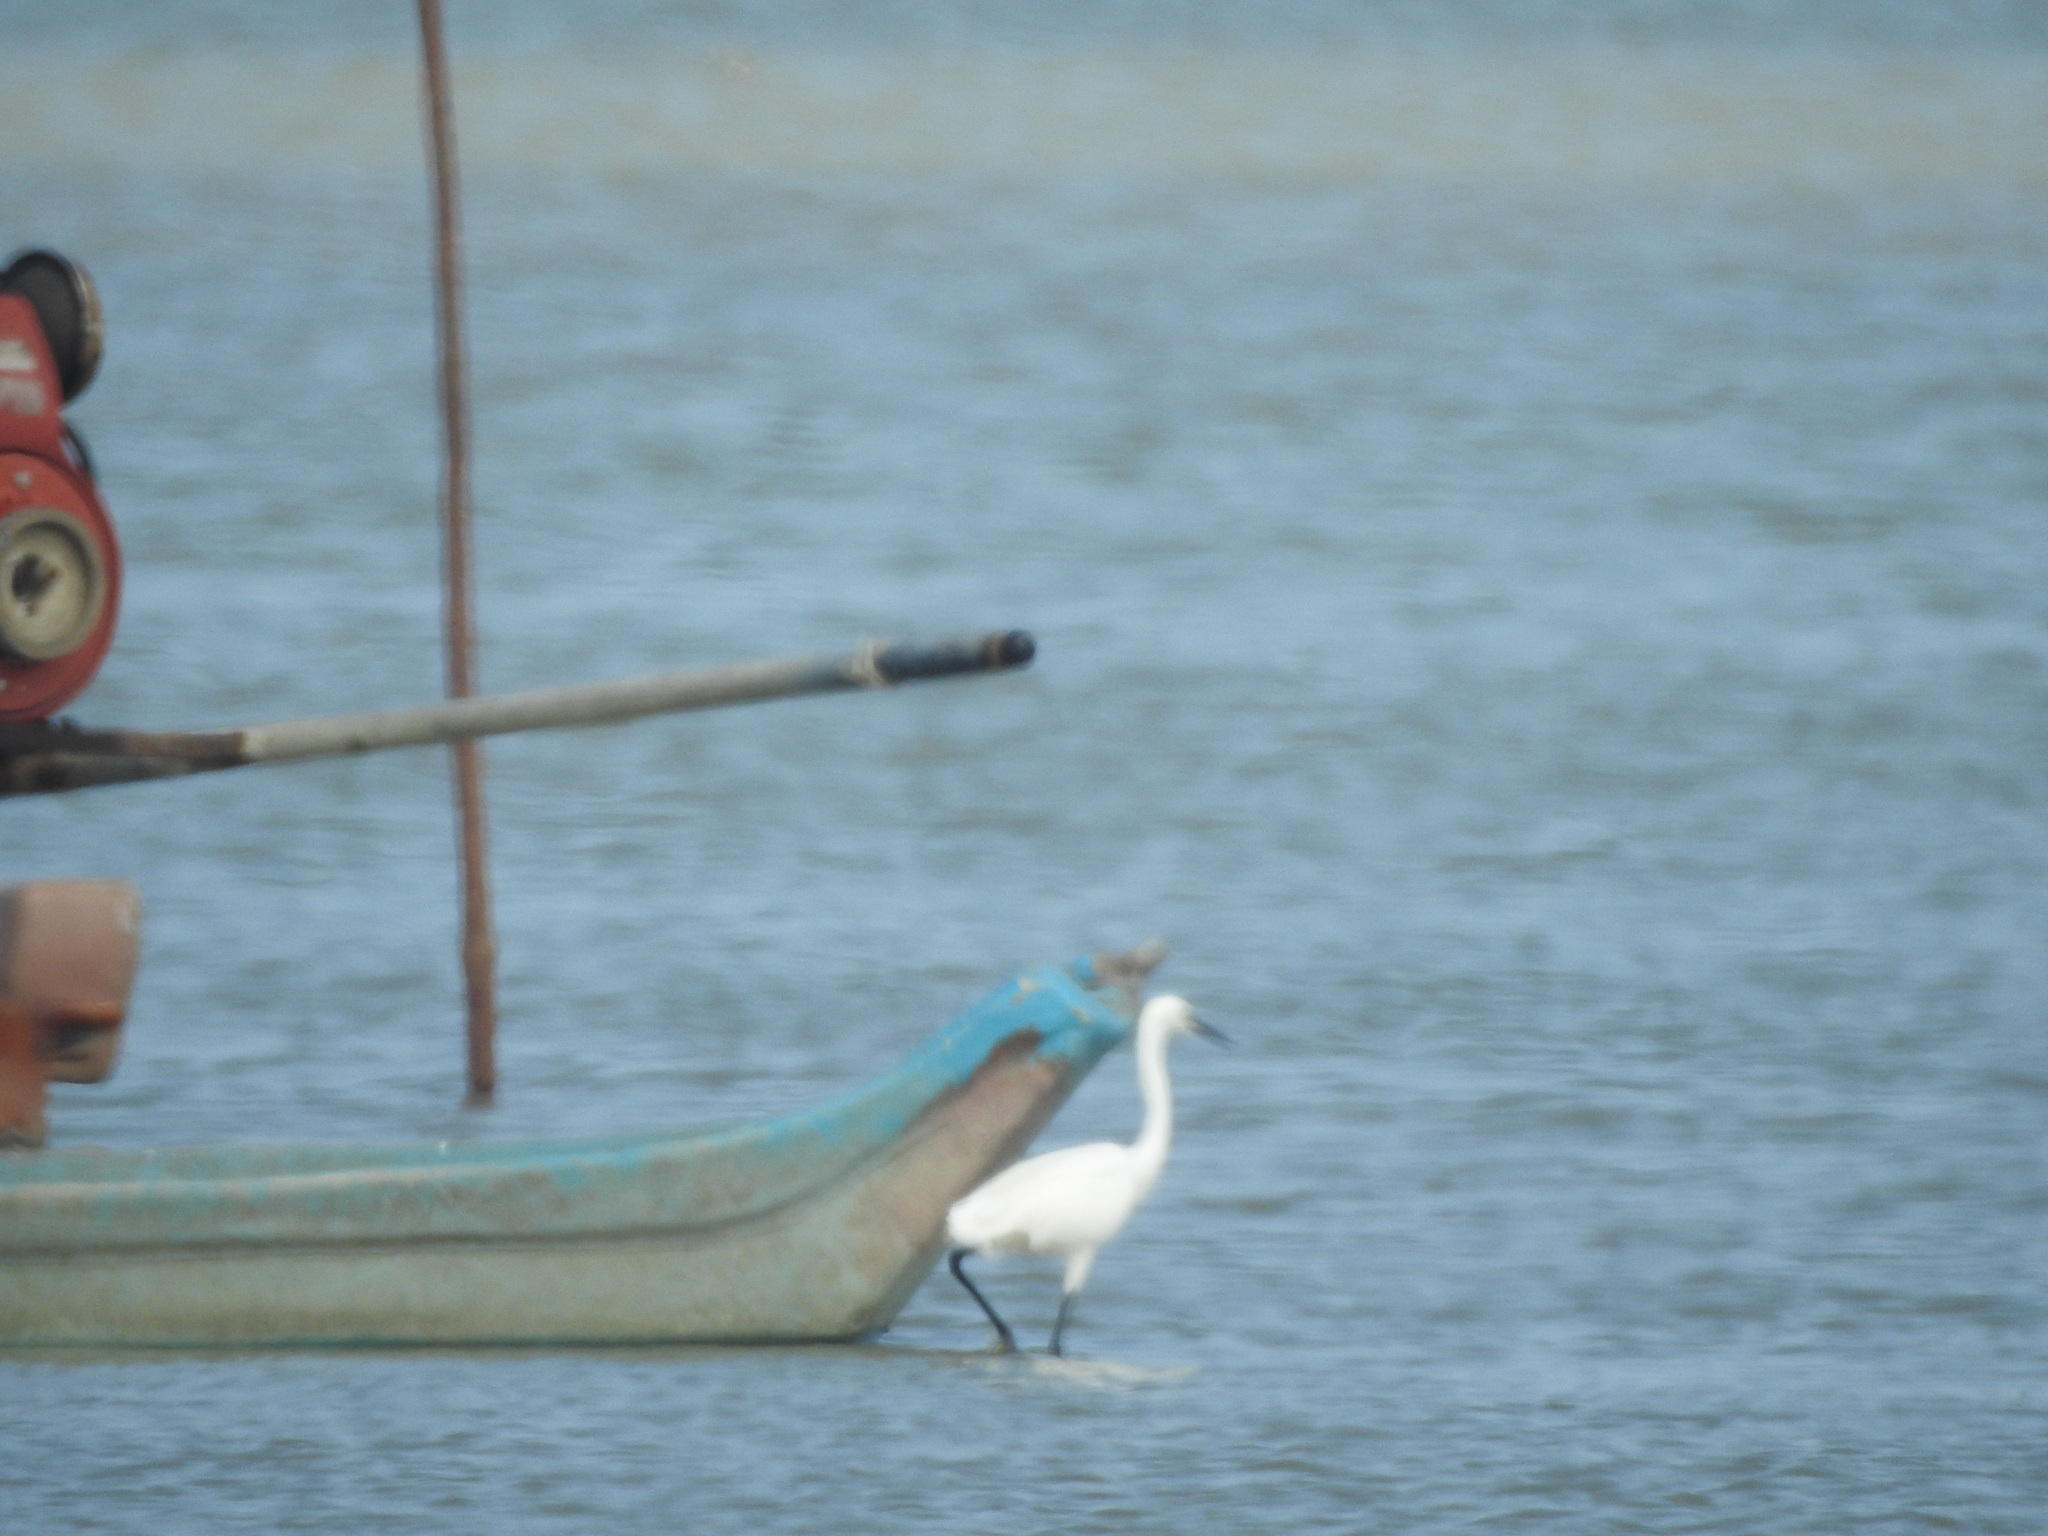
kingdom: Animalia
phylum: Chordata
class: Aves
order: Pelecaniformes
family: Ardeidae
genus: Egretta
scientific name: Egretta garzetta
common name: Little egret
